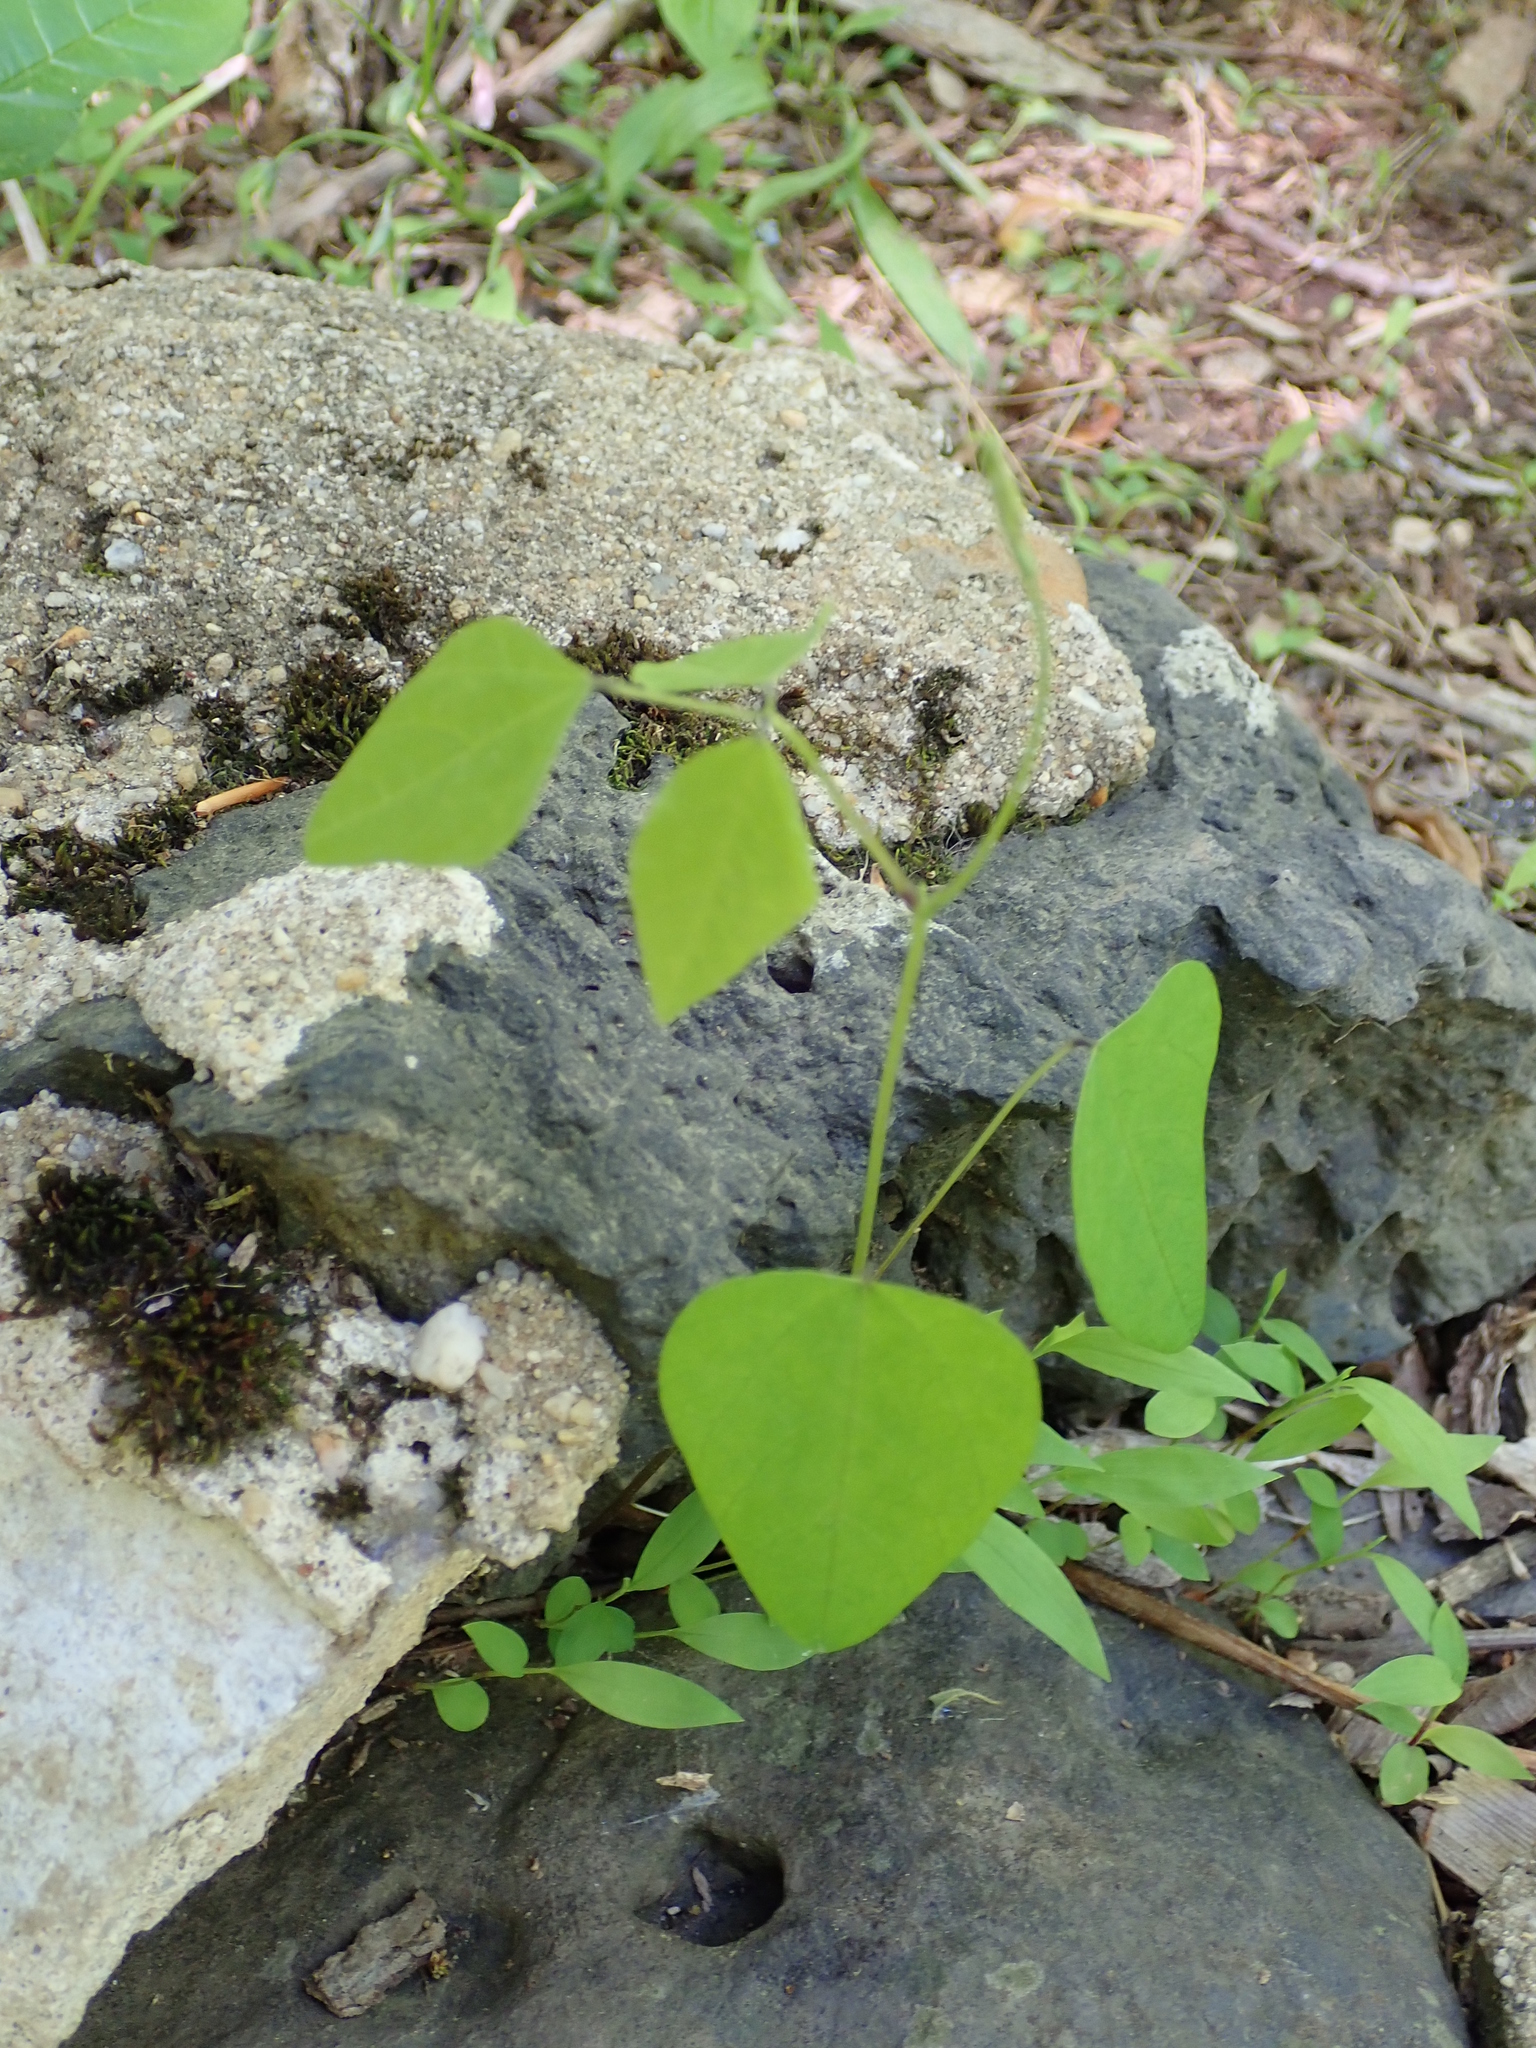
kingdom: Plantae
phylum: Tracheophyta
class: Magnoliopsida
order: Fabales
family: Fabaceae
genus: Amphicarpaea
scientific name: Amphicarpaea bracteata
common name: American hog peanut
